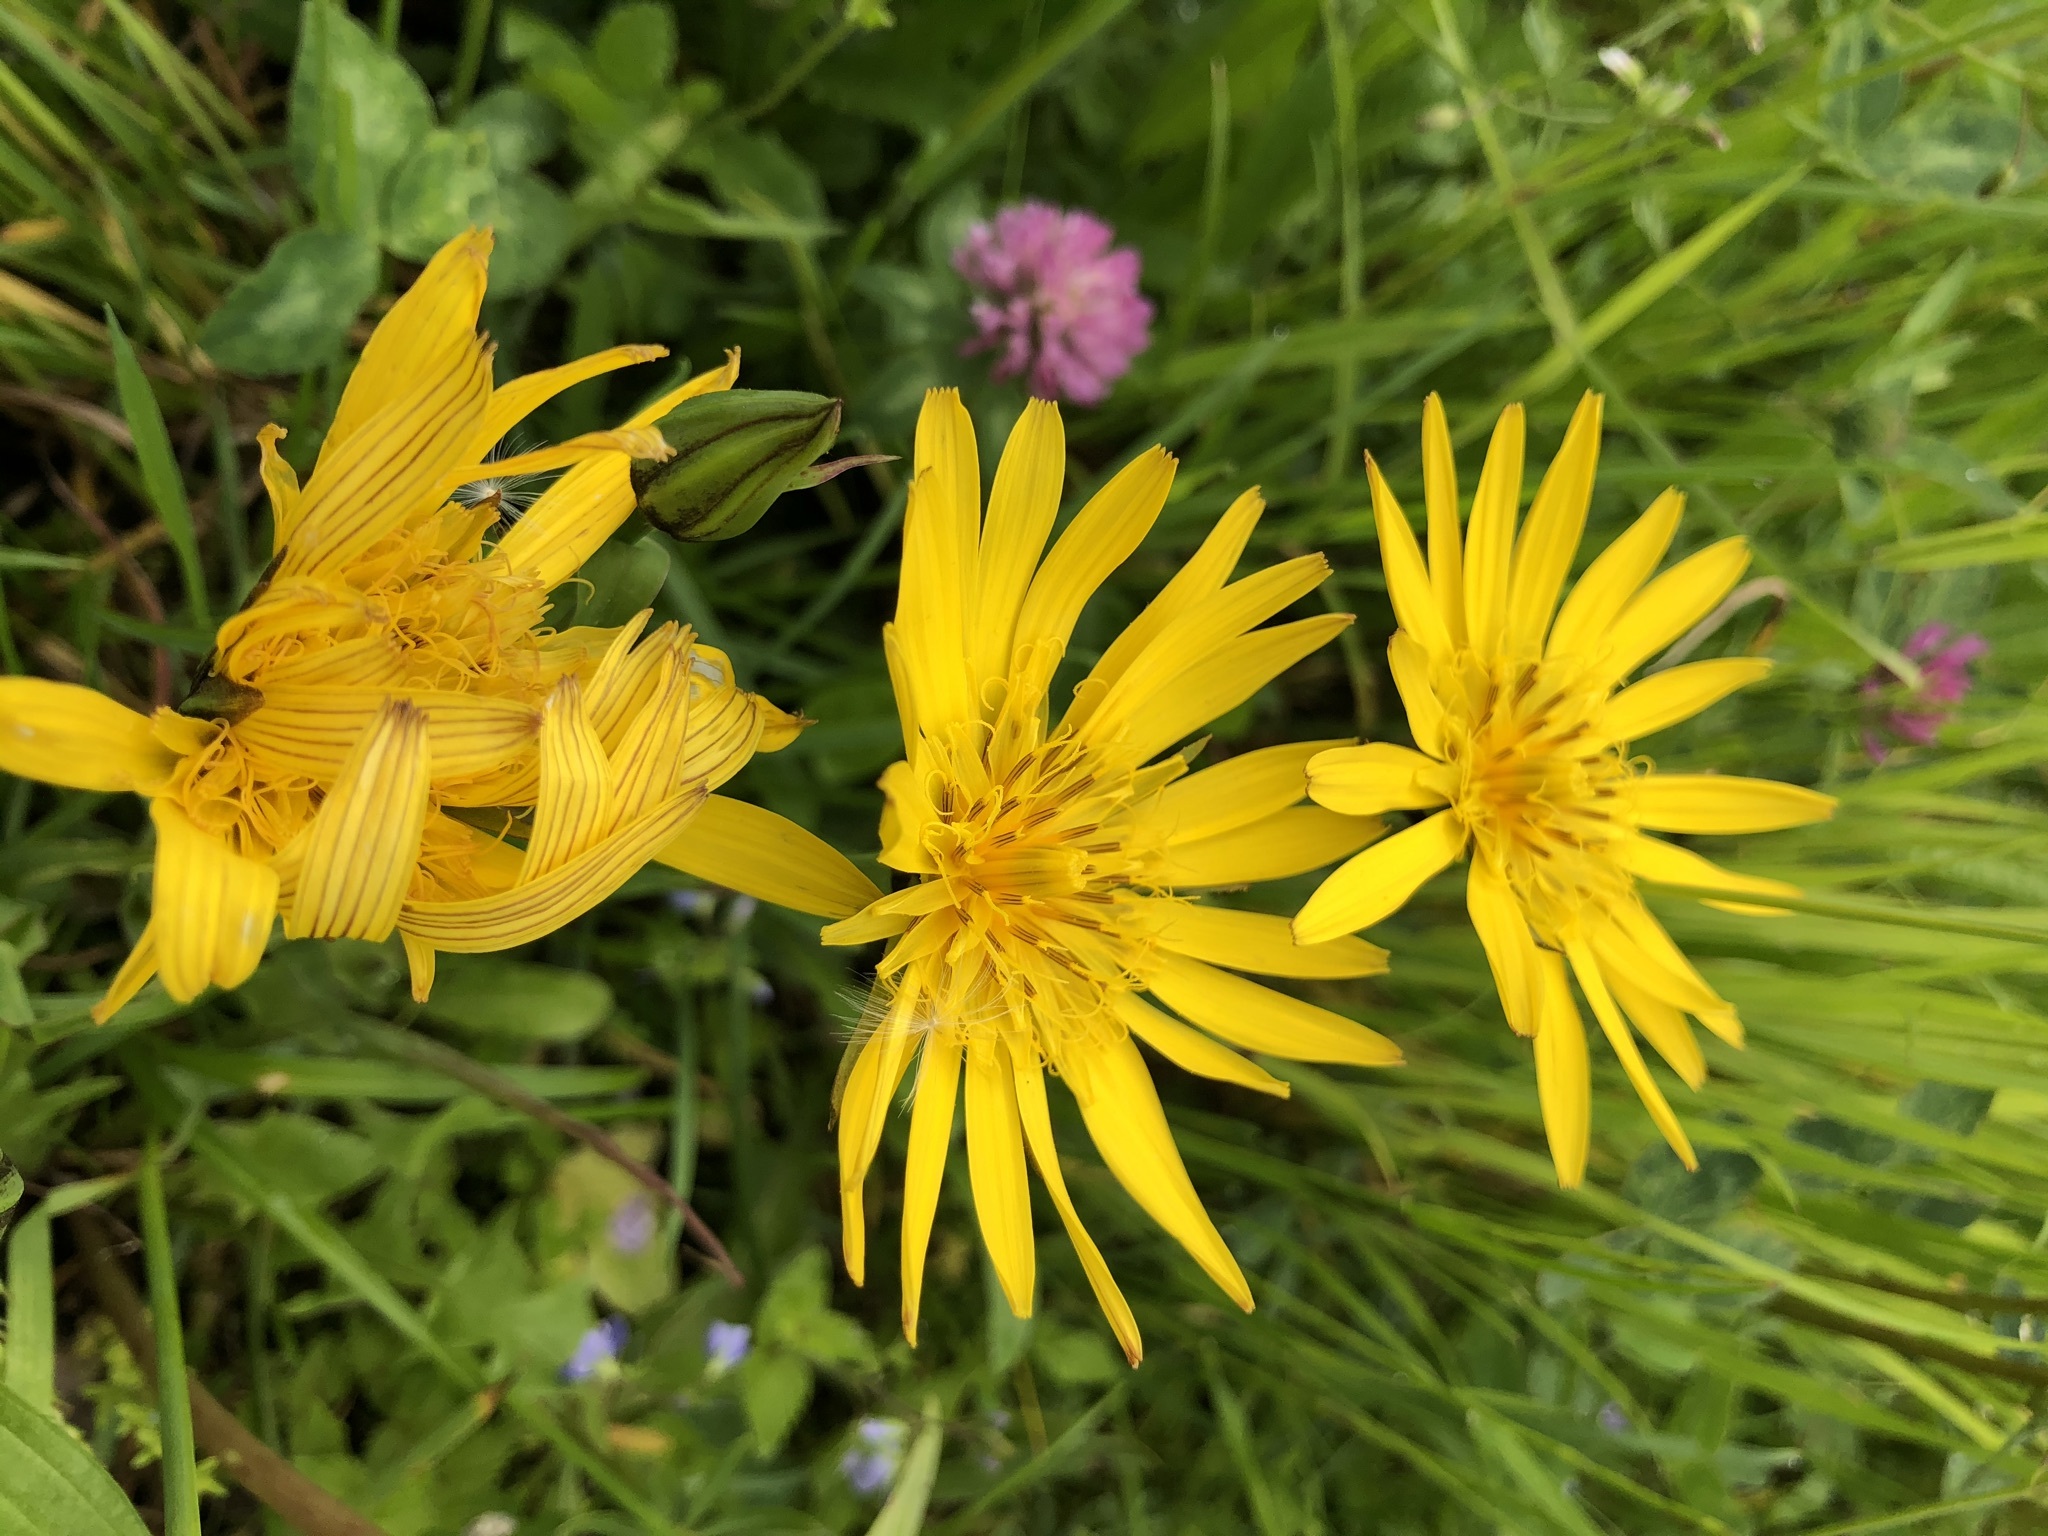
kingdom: Plantae
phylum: Tracheophyta
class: Magnoliopsida
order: Asterales
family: Asteraceae
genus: Tragopogon
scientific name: Tragopogon orientalis
